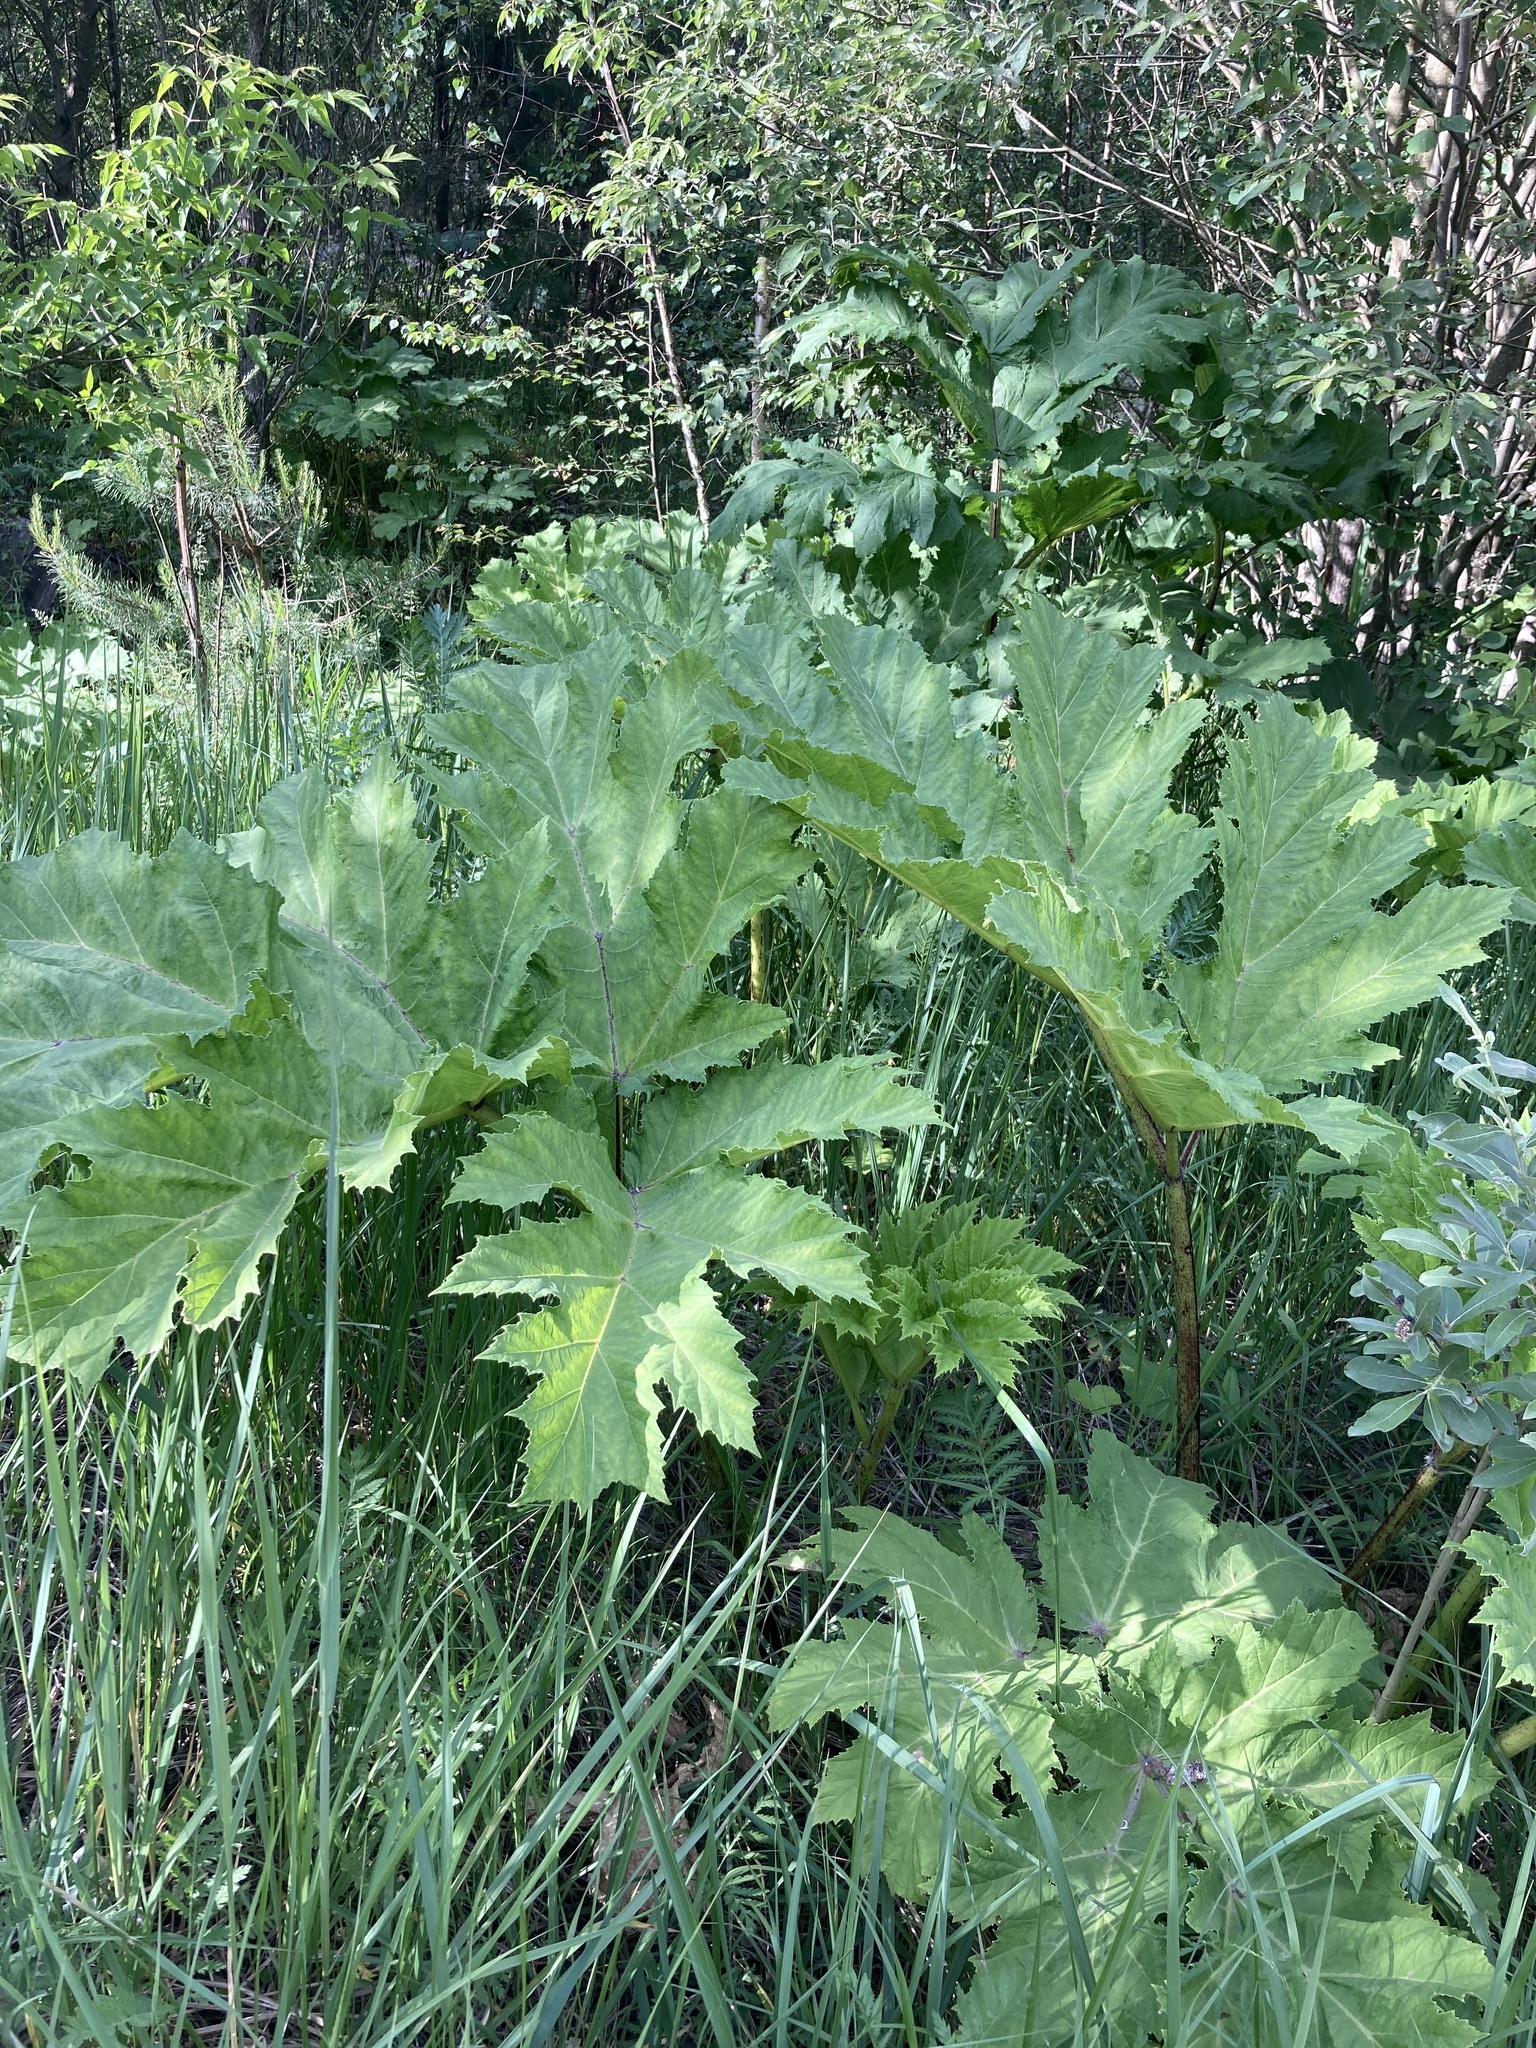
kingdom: Plantae
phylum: Tracheophyta
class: Magnoliopsida
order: Apiales
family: Apiaceae
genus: Heracleum
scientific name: Heracleum sosnowskyi
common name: Sosnowsky's hogweed
